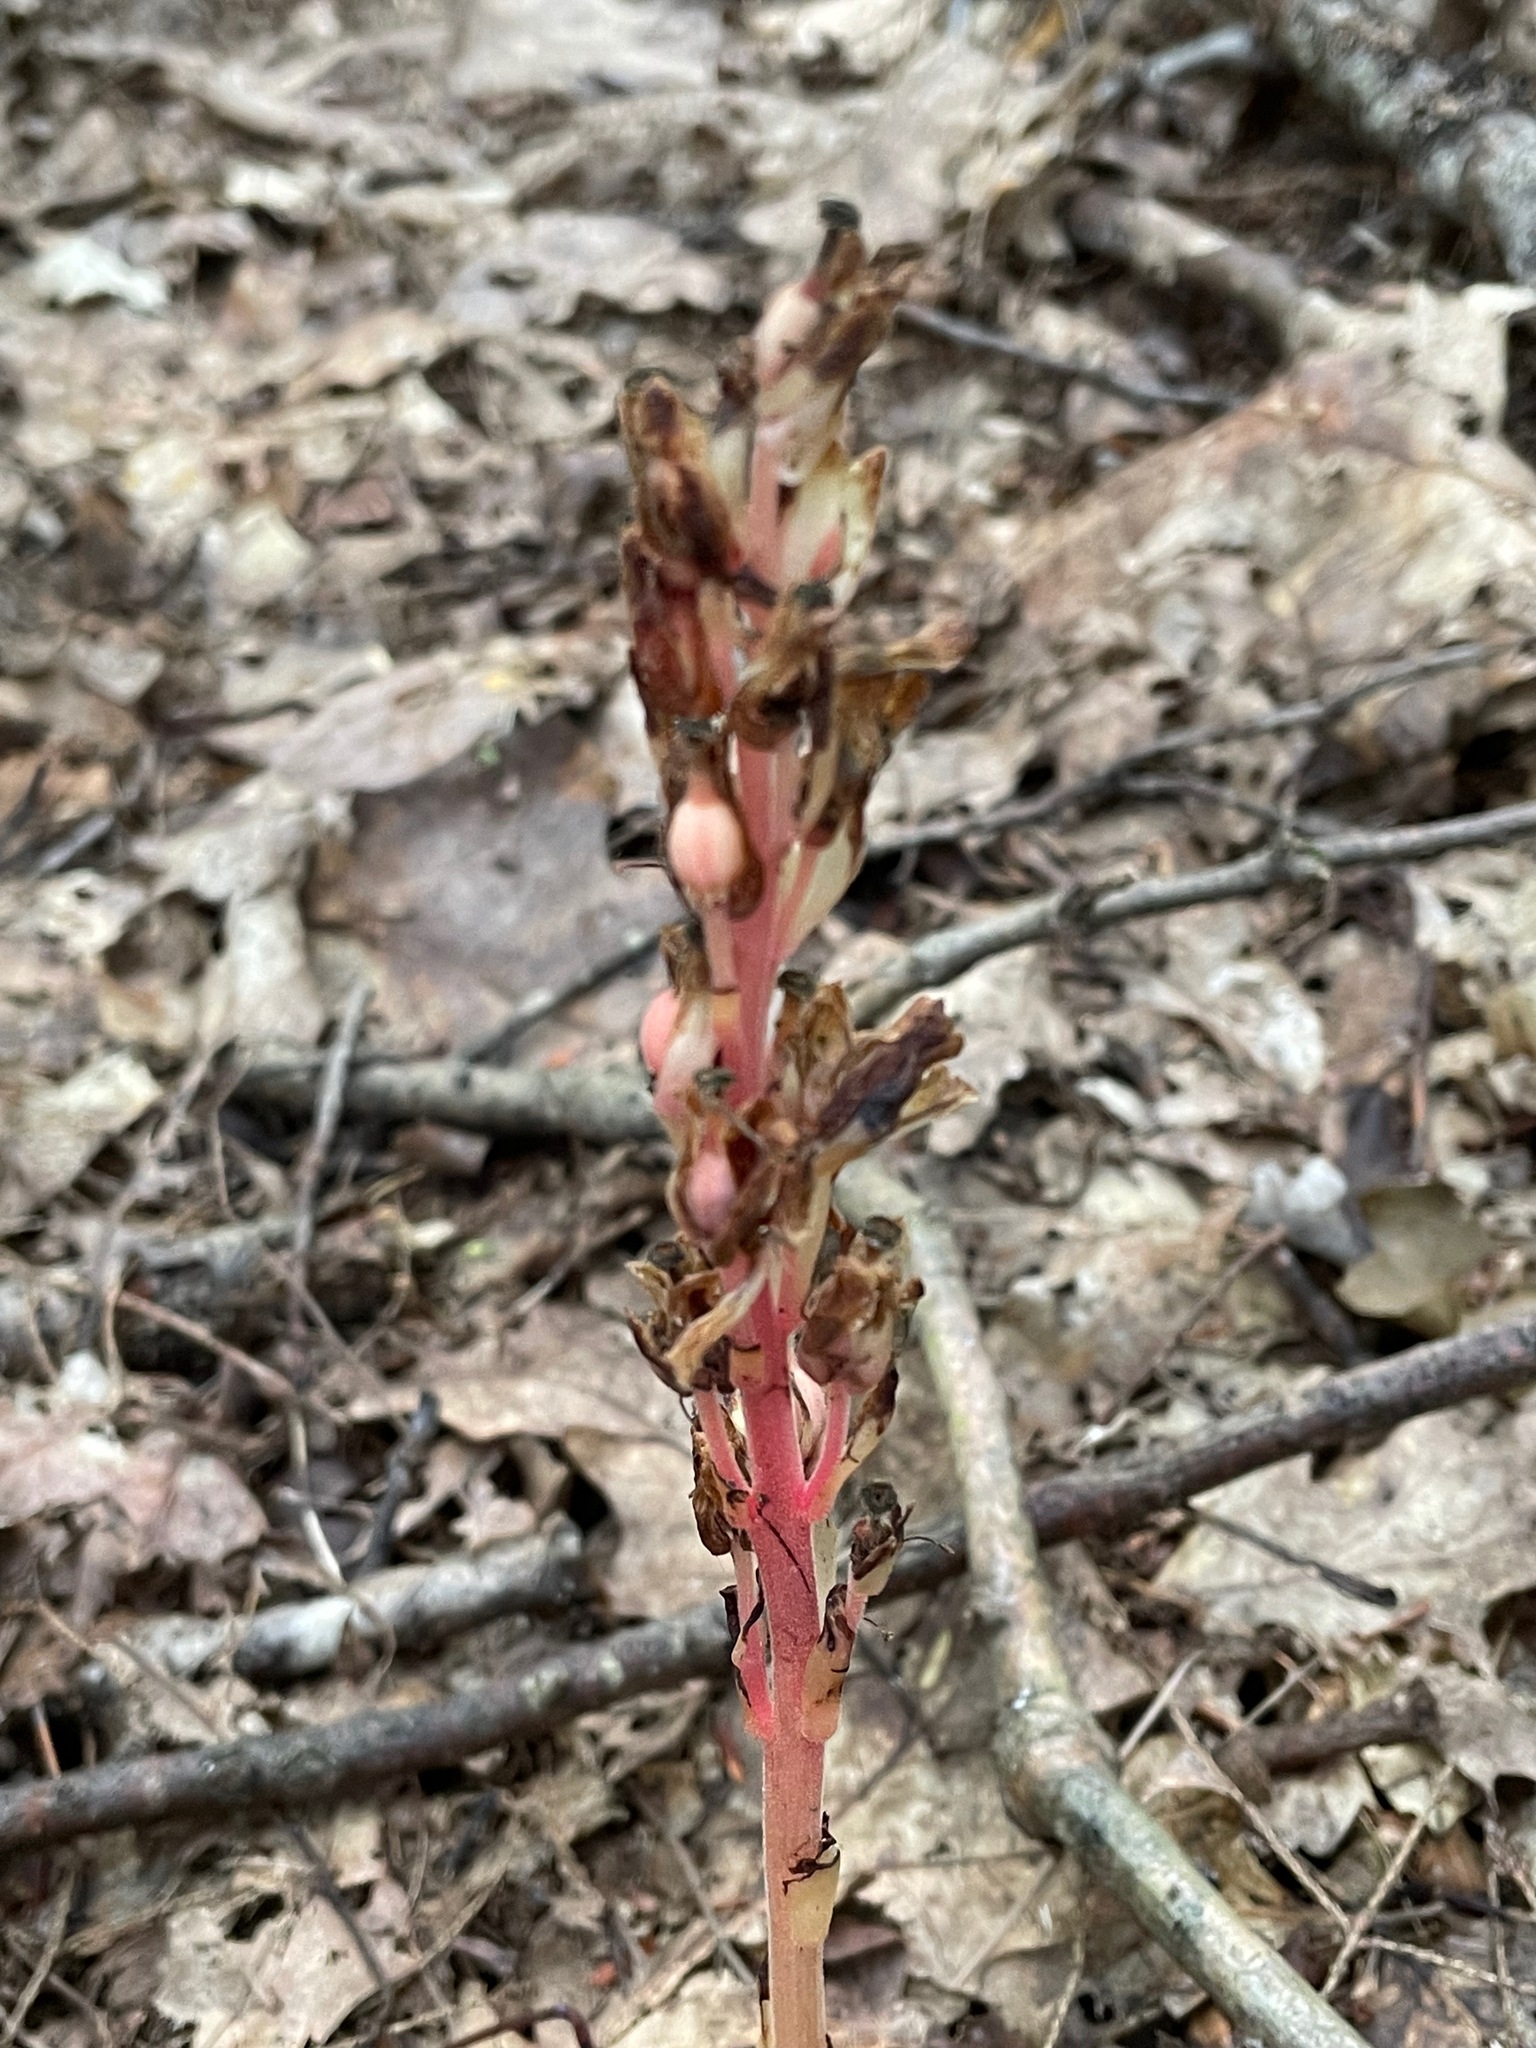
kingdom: Plantae
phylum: Tracheophyta
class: Magnoliopsida
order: Ericales
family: Ericaceae
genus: Hypopitys
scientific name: Hypopitys monotropa
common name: Yellow bird's-nest
